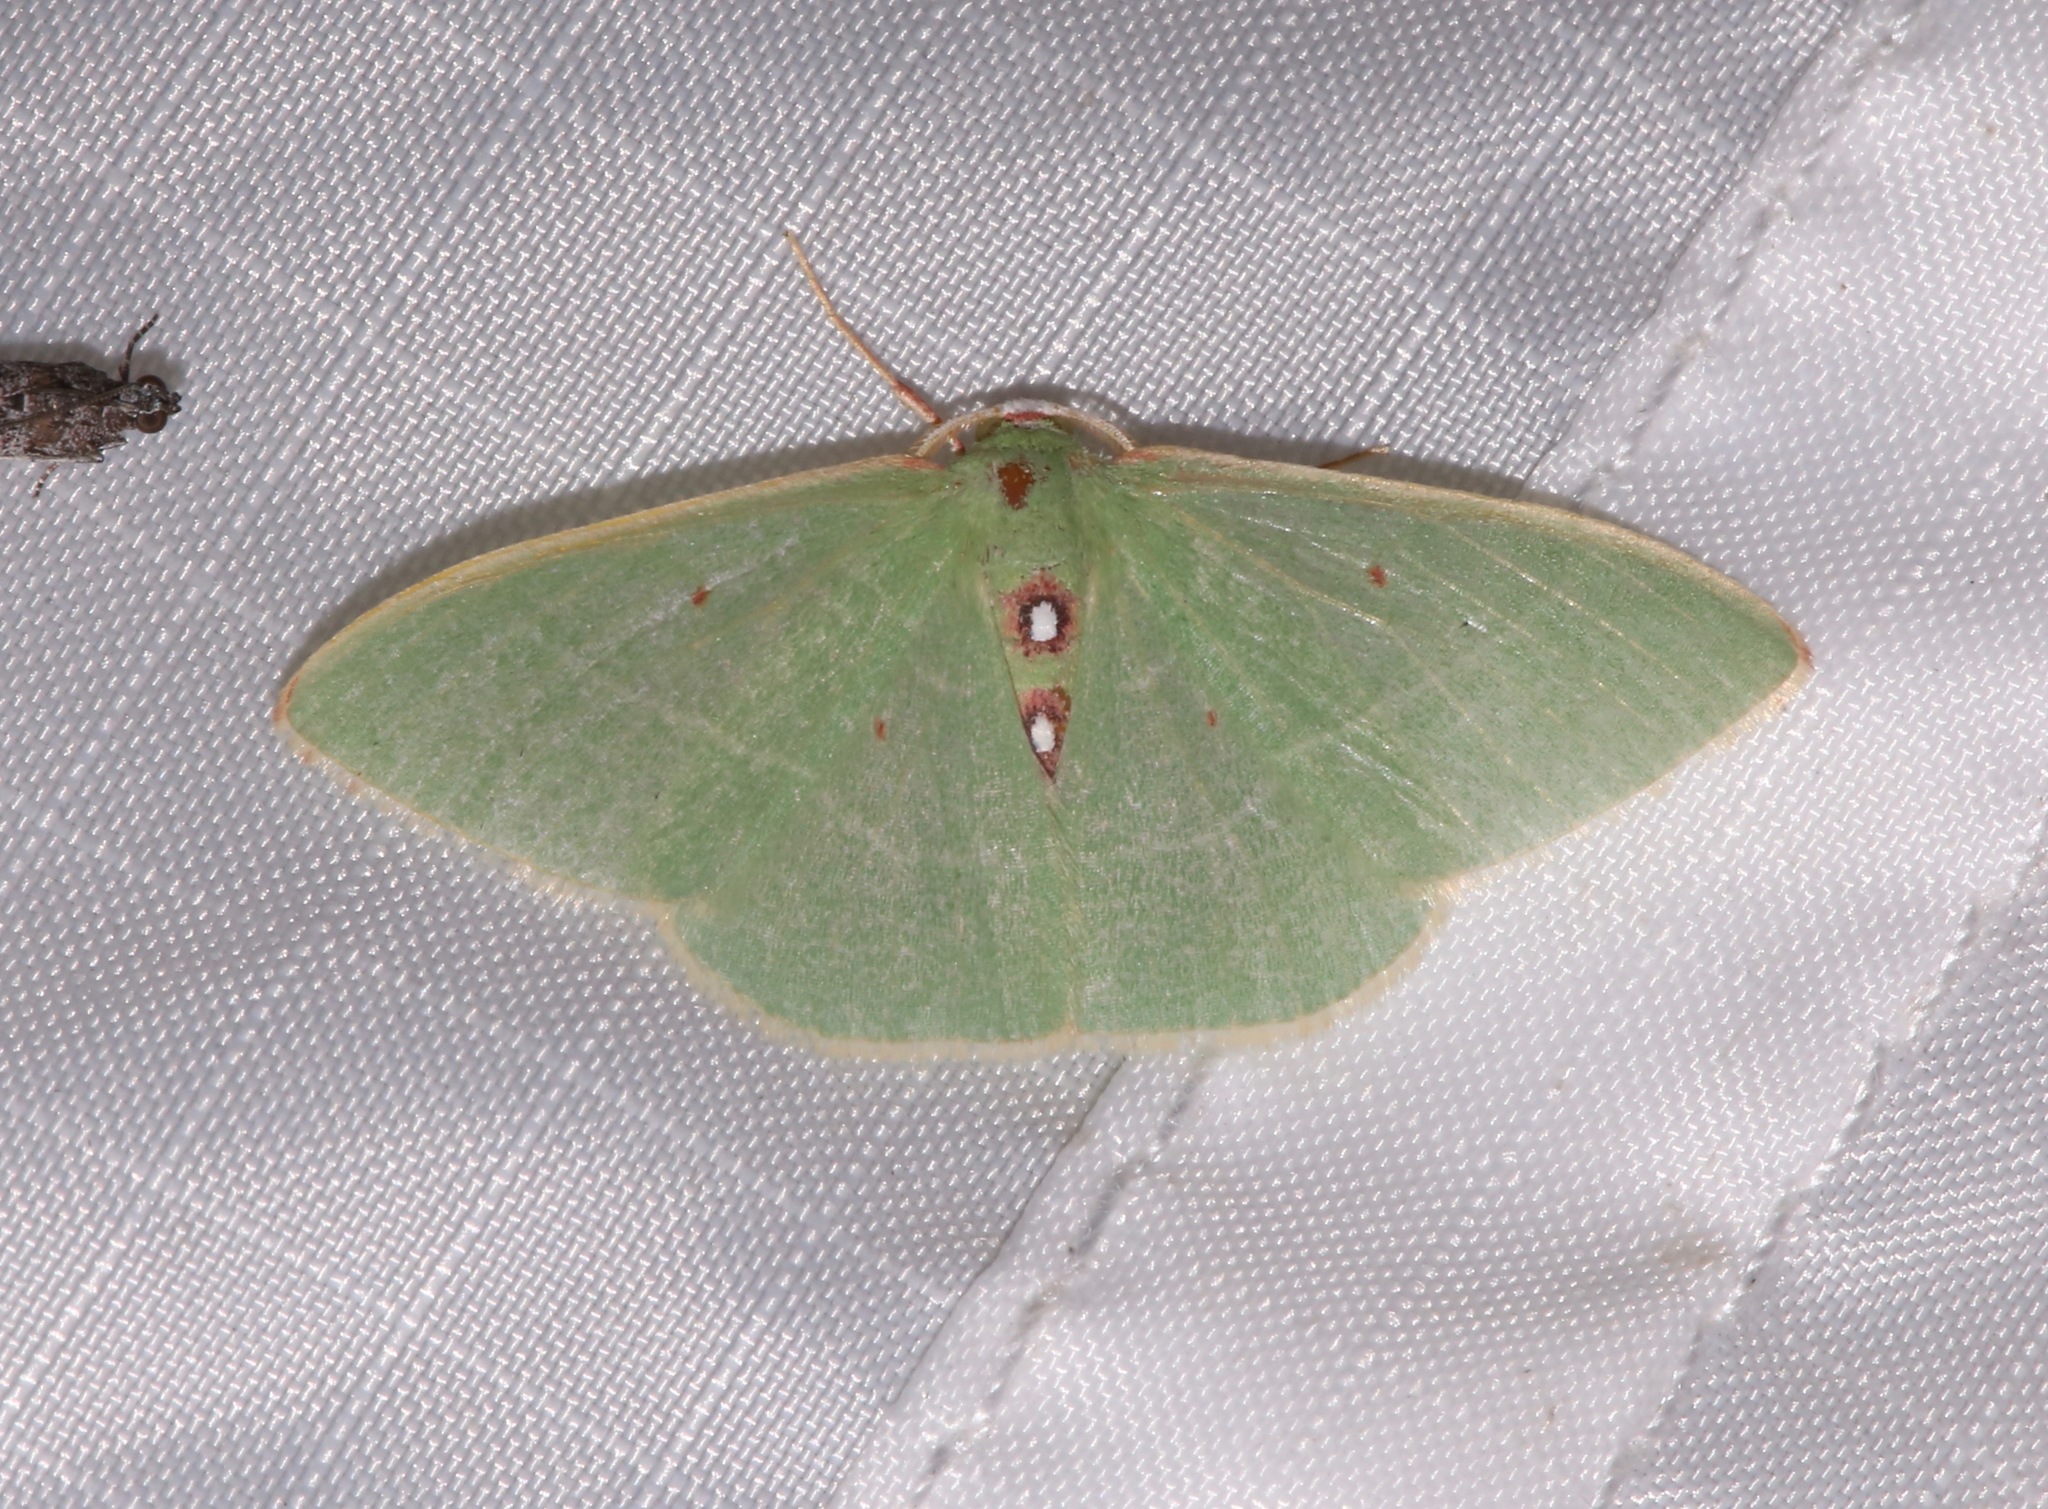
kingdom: Animalia
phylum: Arthropoda
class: Insecta
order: Lepidoptera
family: Geometridae
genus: Nemoria
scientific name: Nemoria darwiniata
